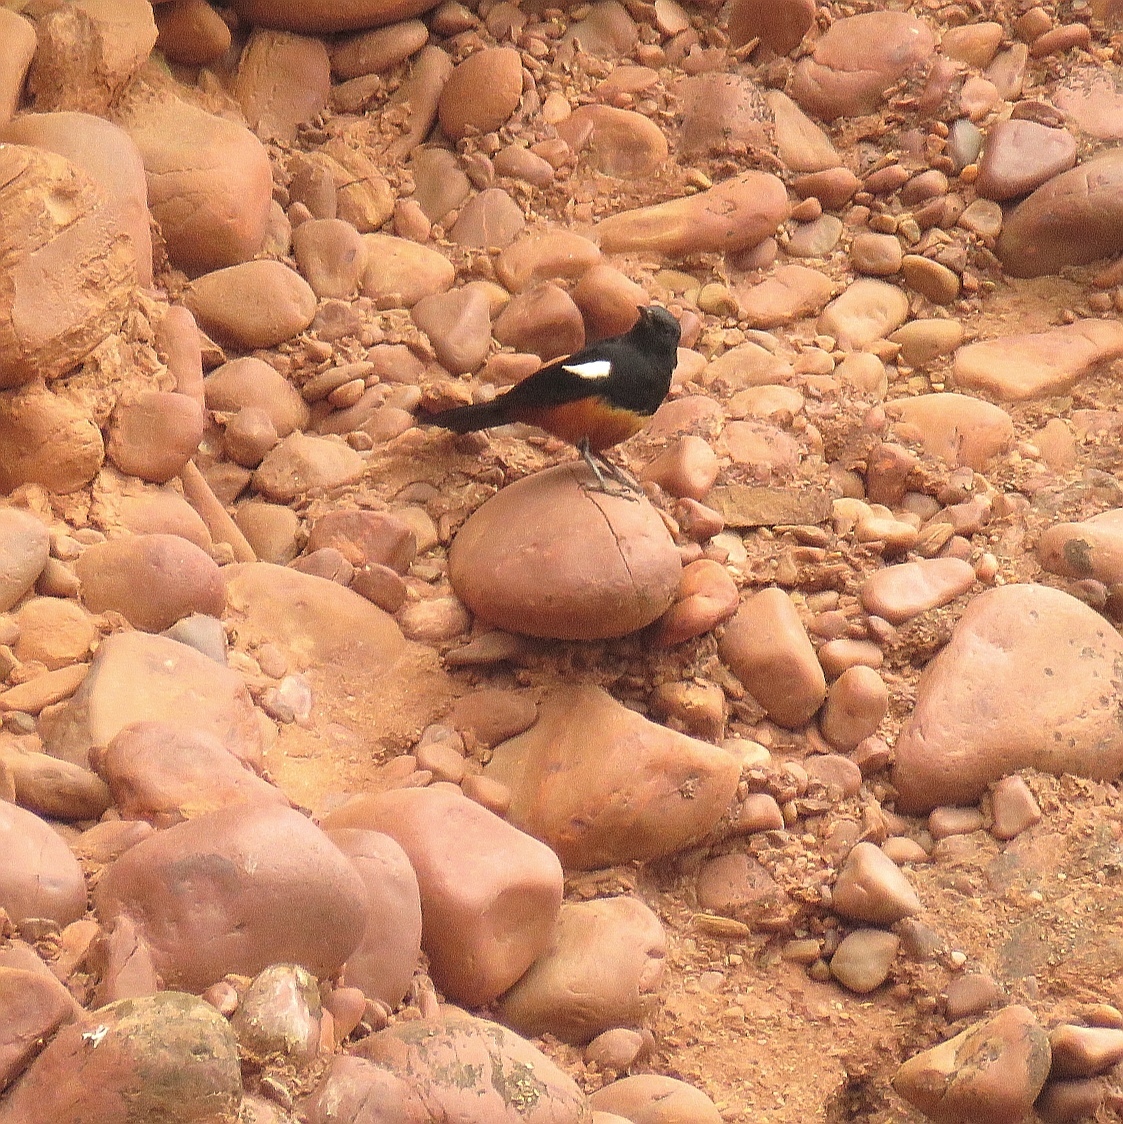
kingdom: Animalia
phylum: Chordata
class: Aves
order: Passeriformes
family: Muscicapidae
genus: Thamnolaea
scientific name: Thamnolaea cinnamomeiventris
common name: Mocking cliff chat
